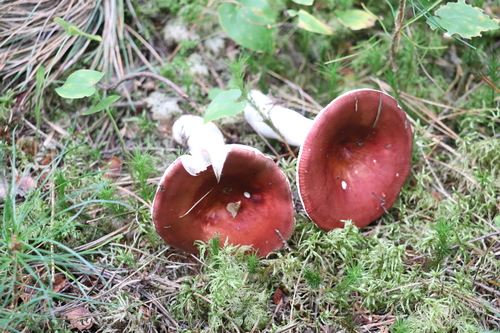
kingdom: Fungi
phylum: Basidiomycota
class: Agaricomycetes
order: Russulales
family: Russulaceae
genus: Russula
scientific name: Russula
